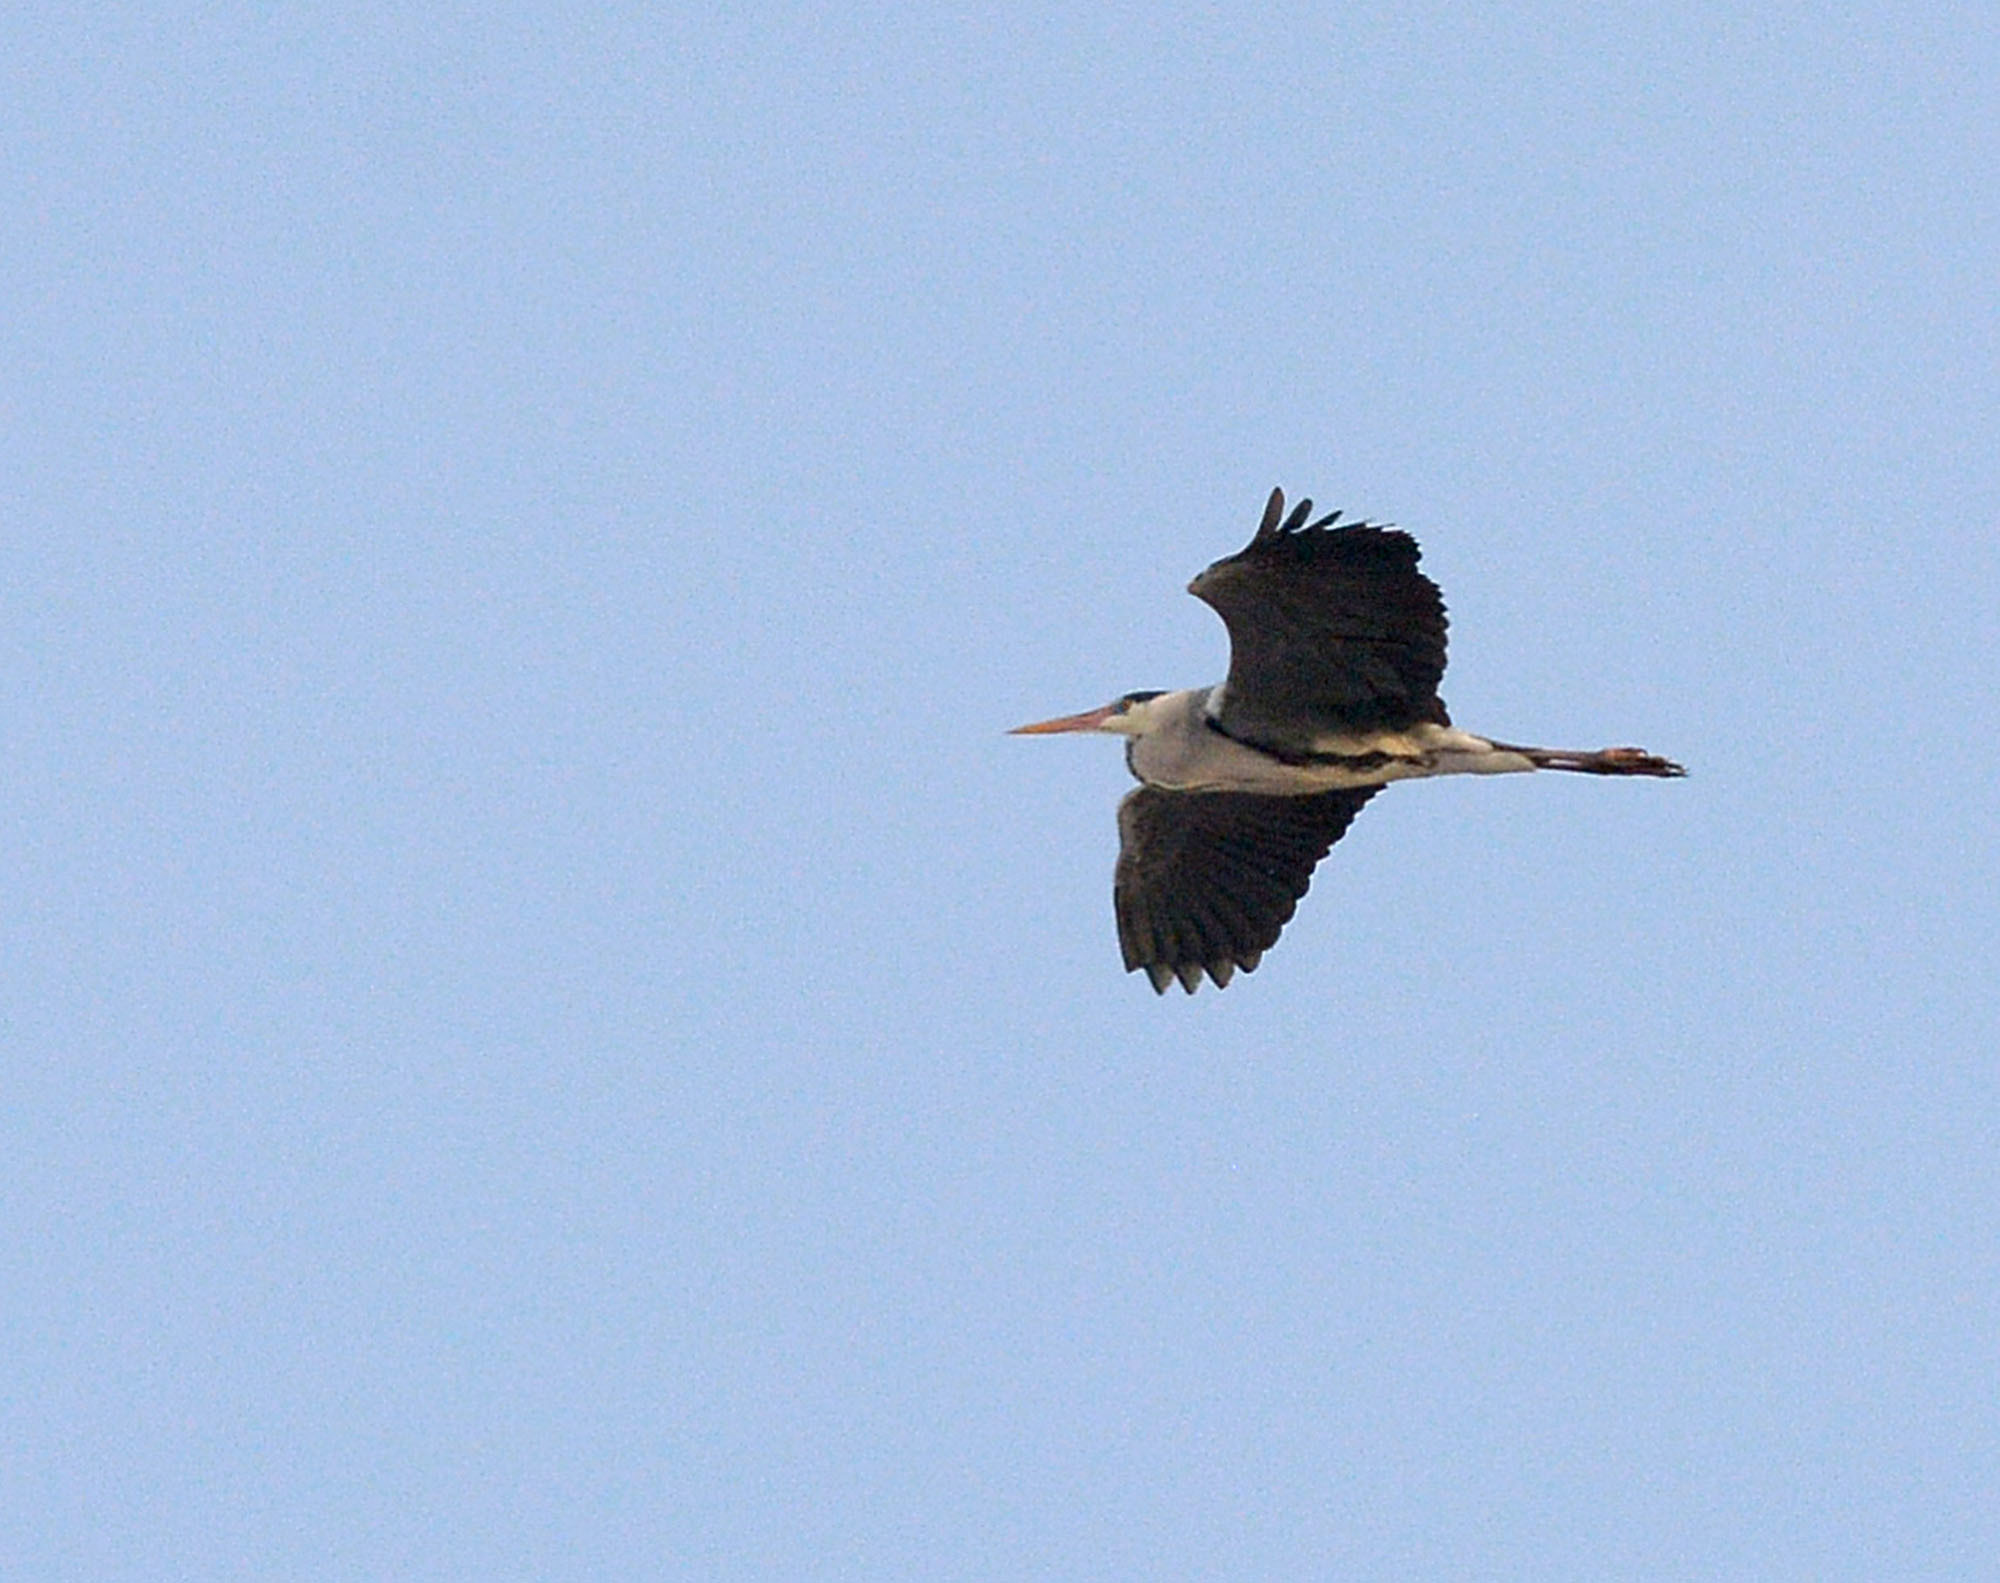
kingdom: Animalia
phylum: Chordata
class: Aves
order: Pelecaniformes
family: Ardeidae
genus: Ardea
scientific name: Ardea cinerea
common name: Grey heron
